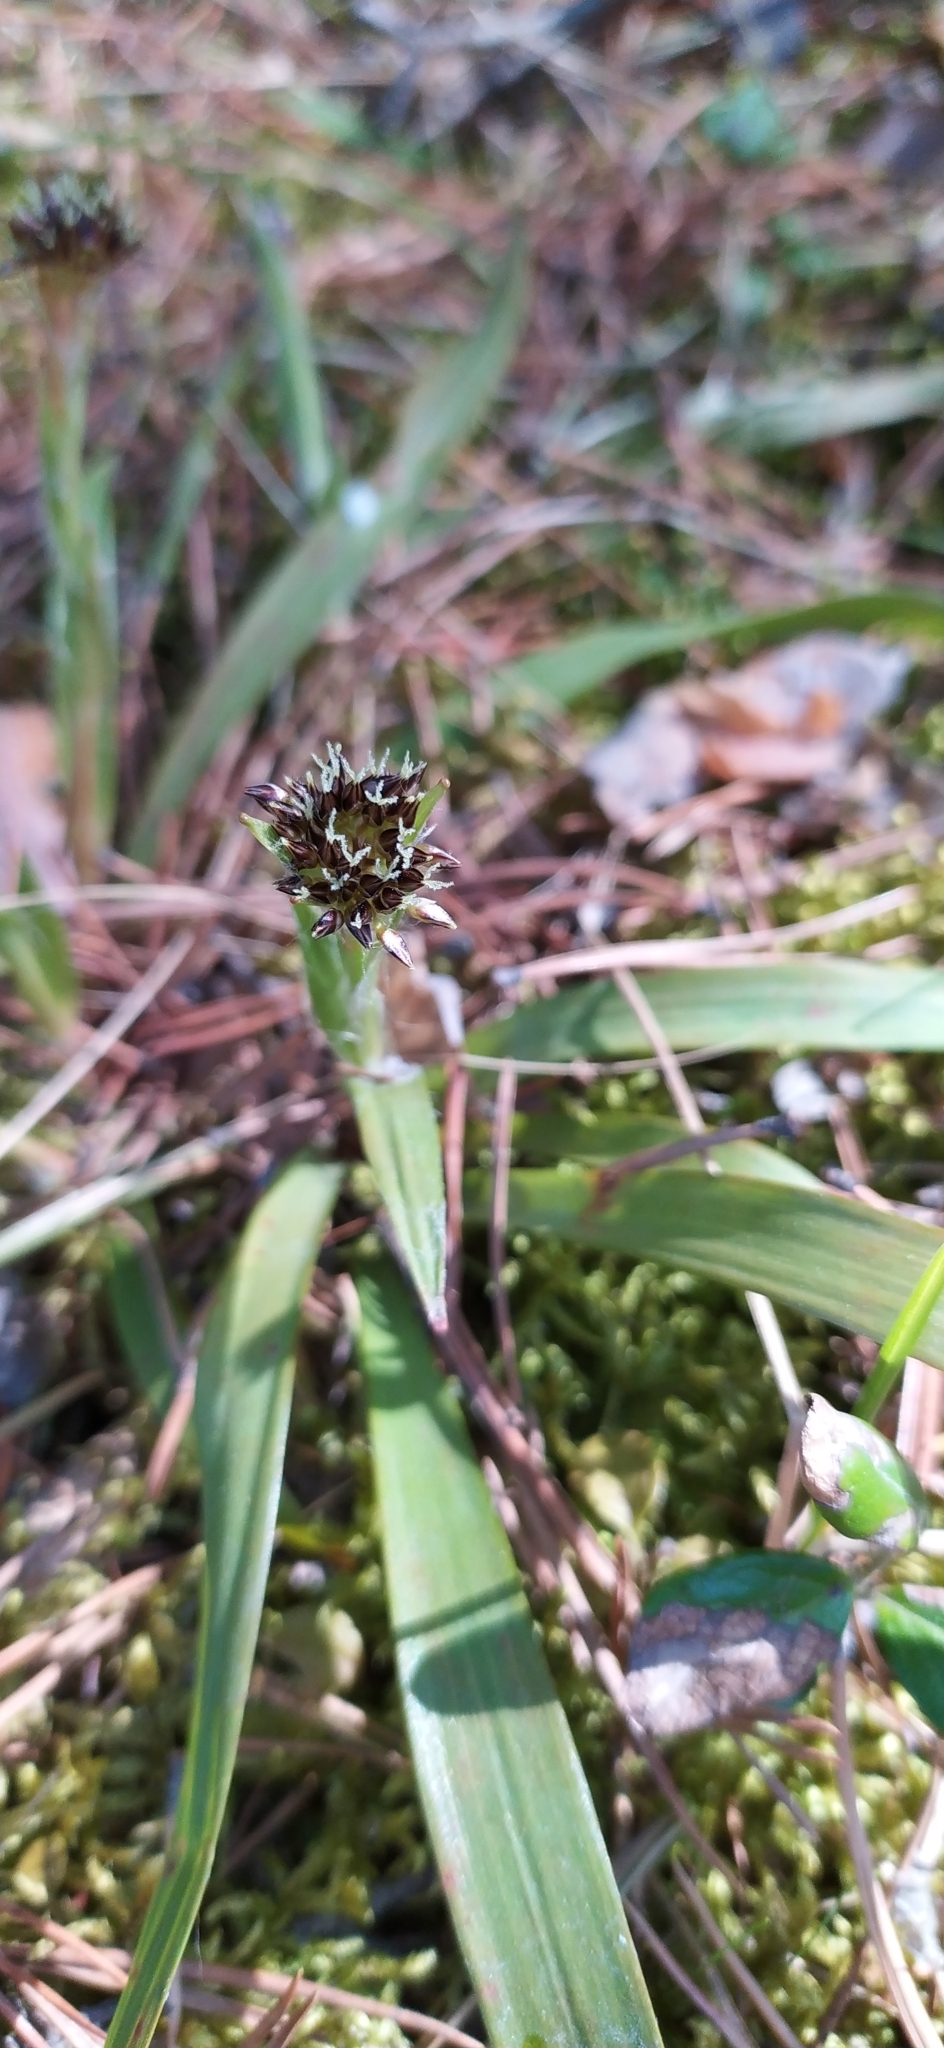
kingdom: Plantae
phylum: Tracheophyta
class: Liliopsida
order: Poales
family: Juncaceae
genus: Luzula
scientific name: Luzula pilosa
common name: Hairy wood-rush
